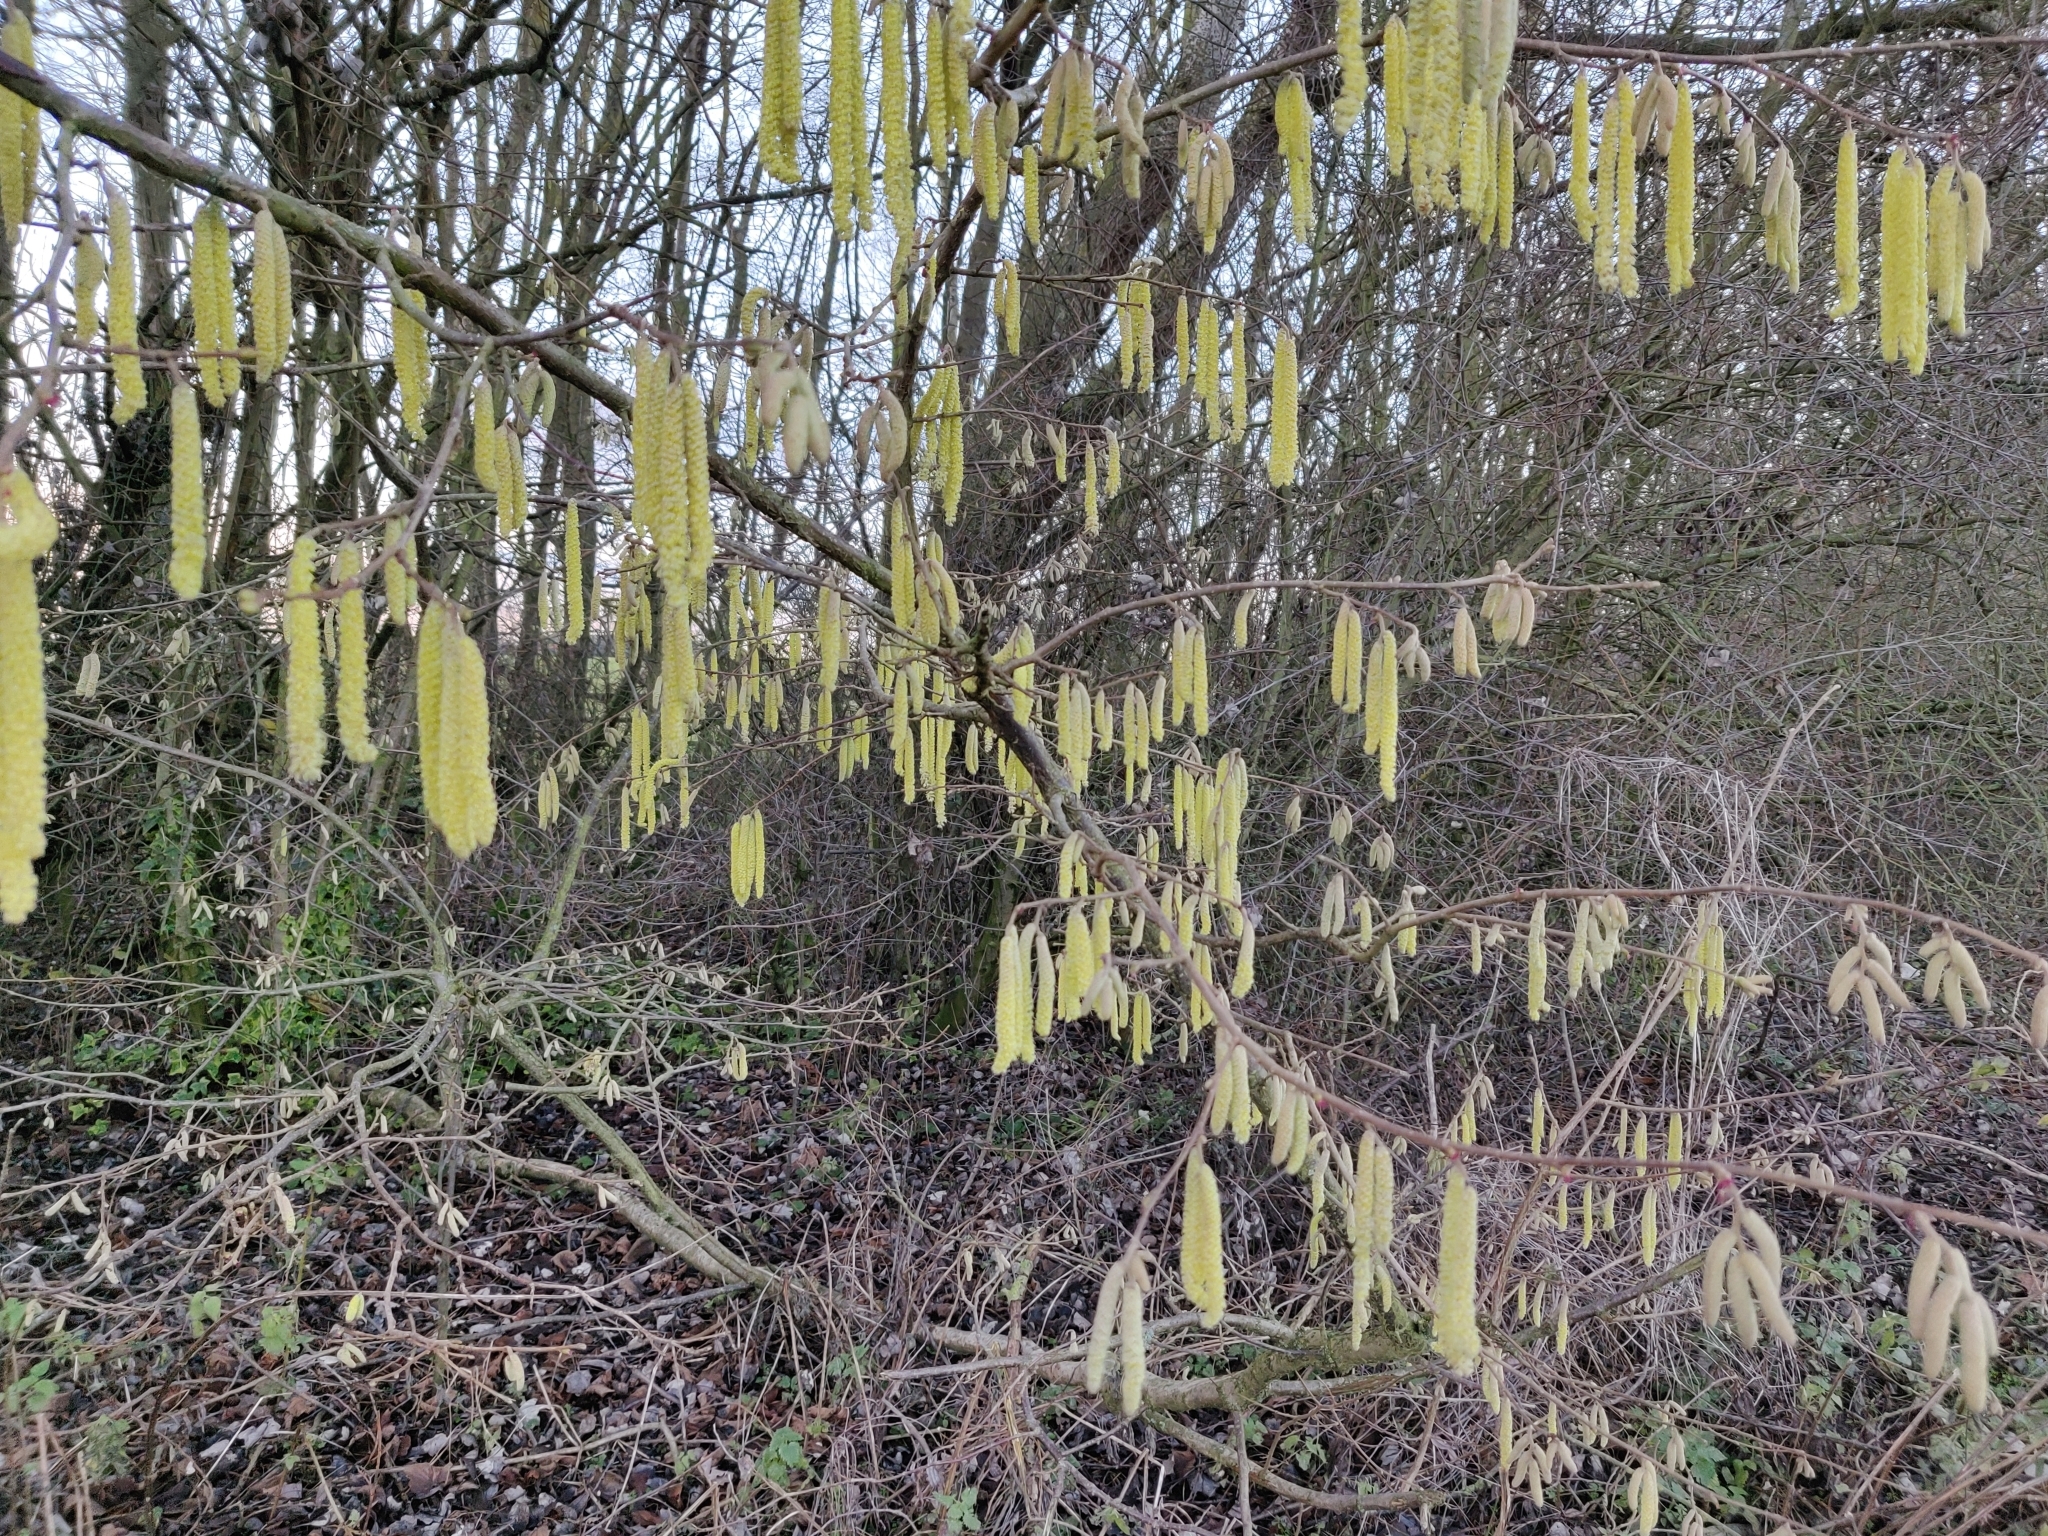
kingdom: Plantae
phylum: Tracheophyta
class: Magnoliopsida
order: Fagales
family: Betulaceae
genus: Corylus
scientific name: Corylus avellana
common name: European hazel
